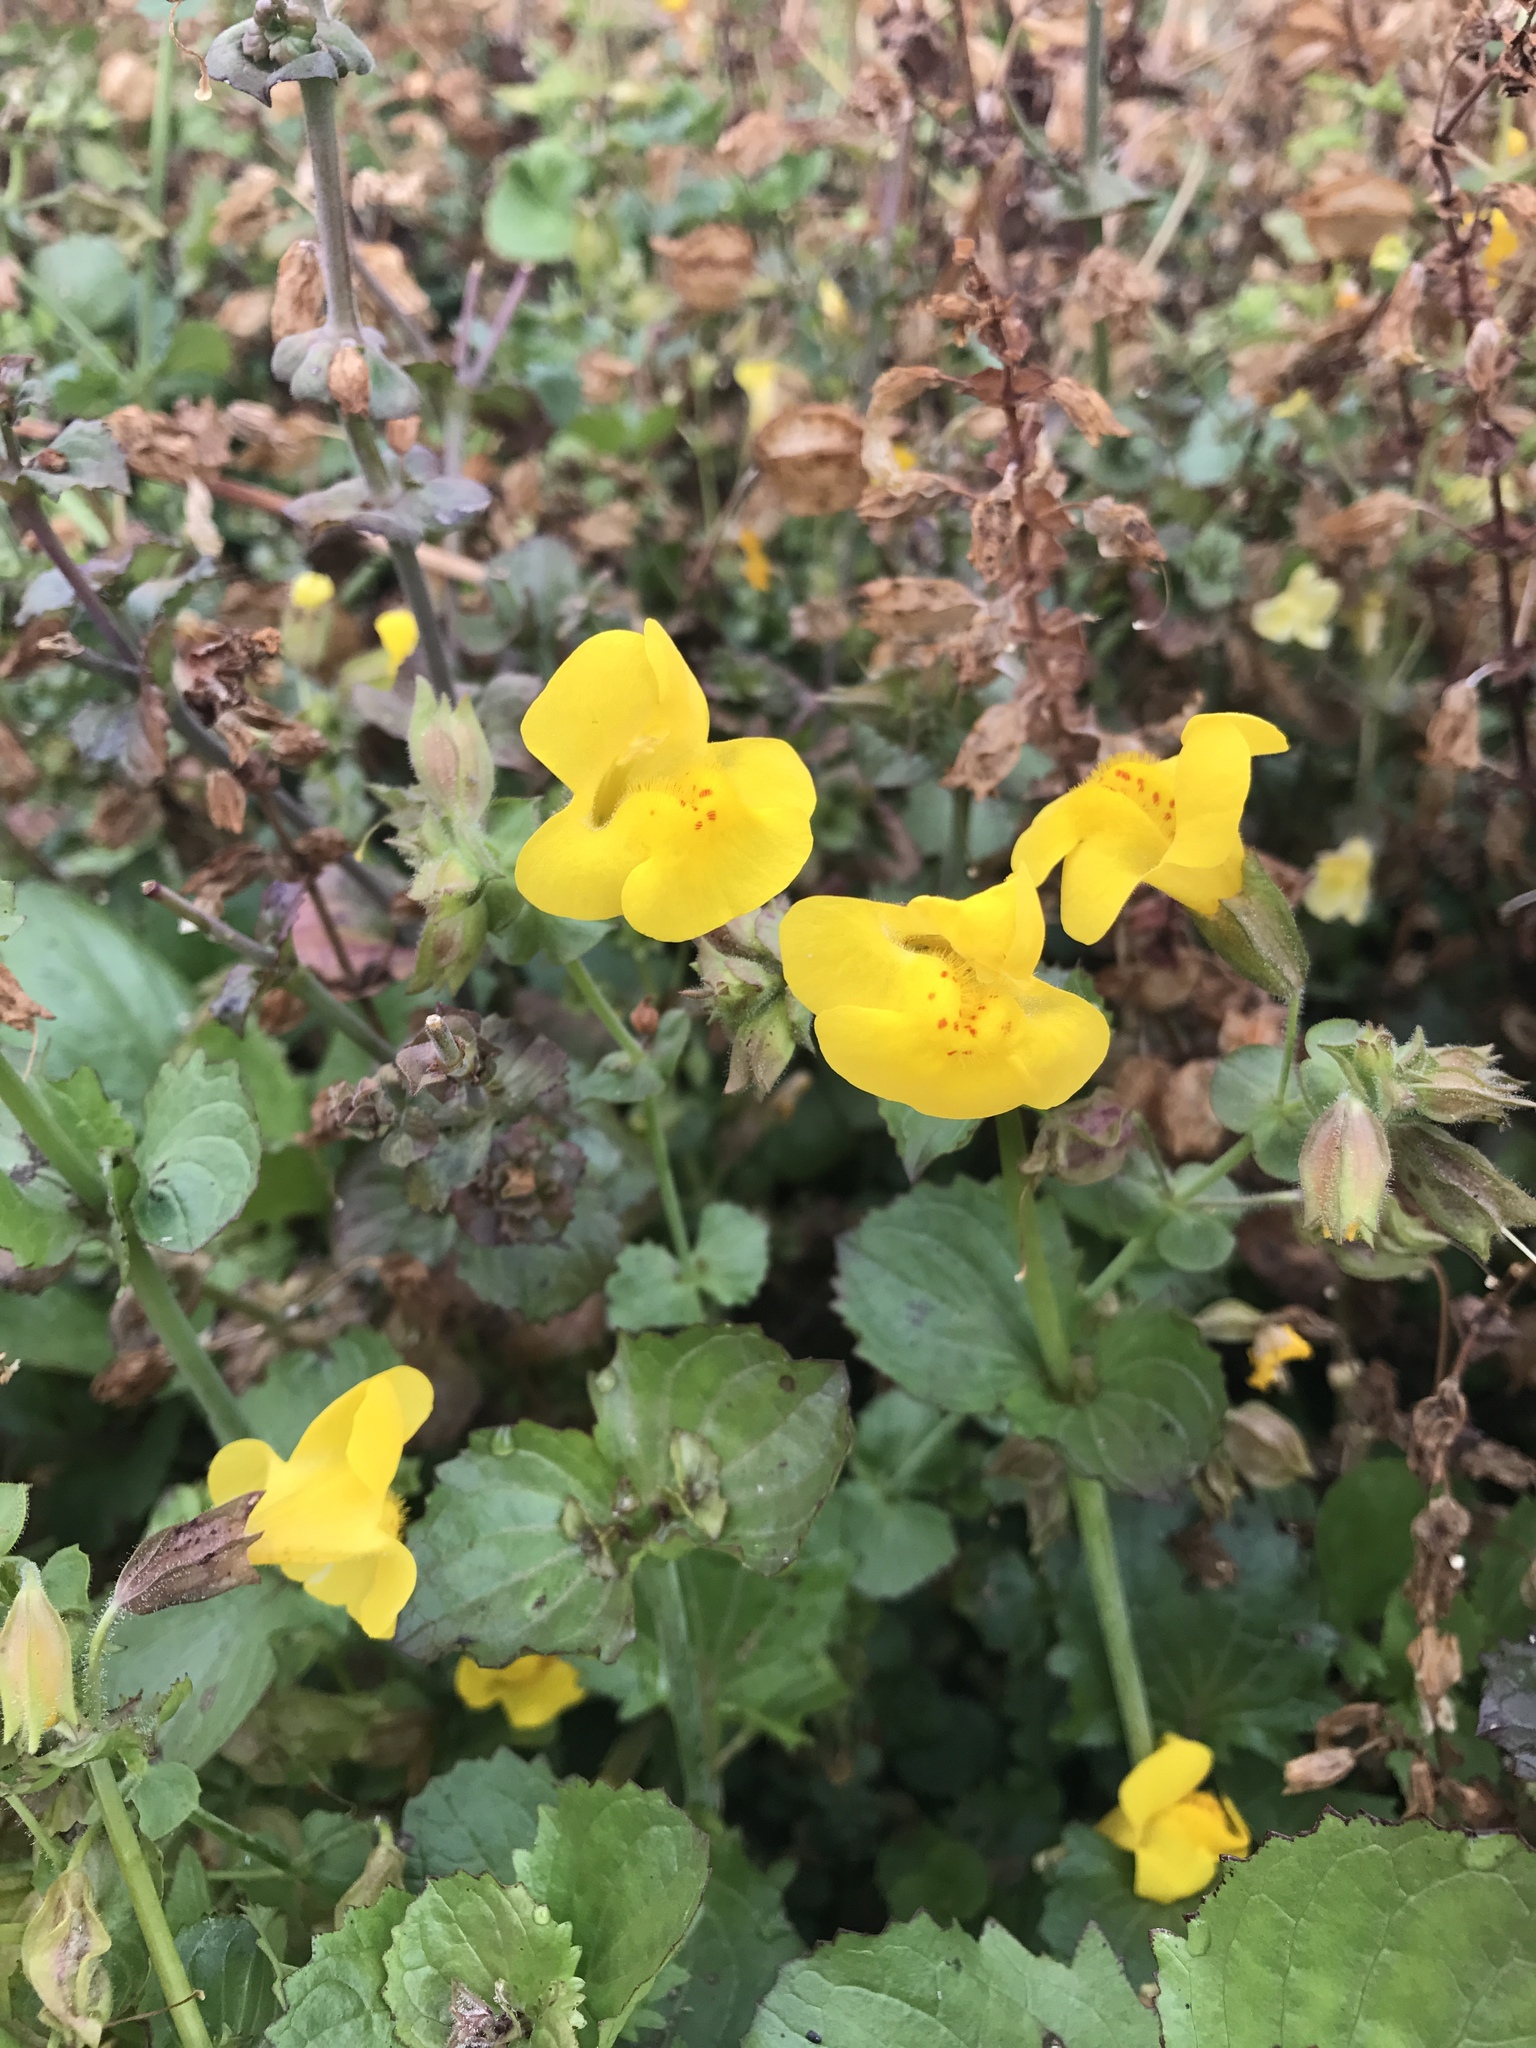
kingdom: Plantae
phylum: Tracheophyta
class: Magnoliopsida
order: Lamiales
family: Phrymaceae
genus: Erythranthe
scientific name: Erythranthe guttata
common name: Monkeyflower
